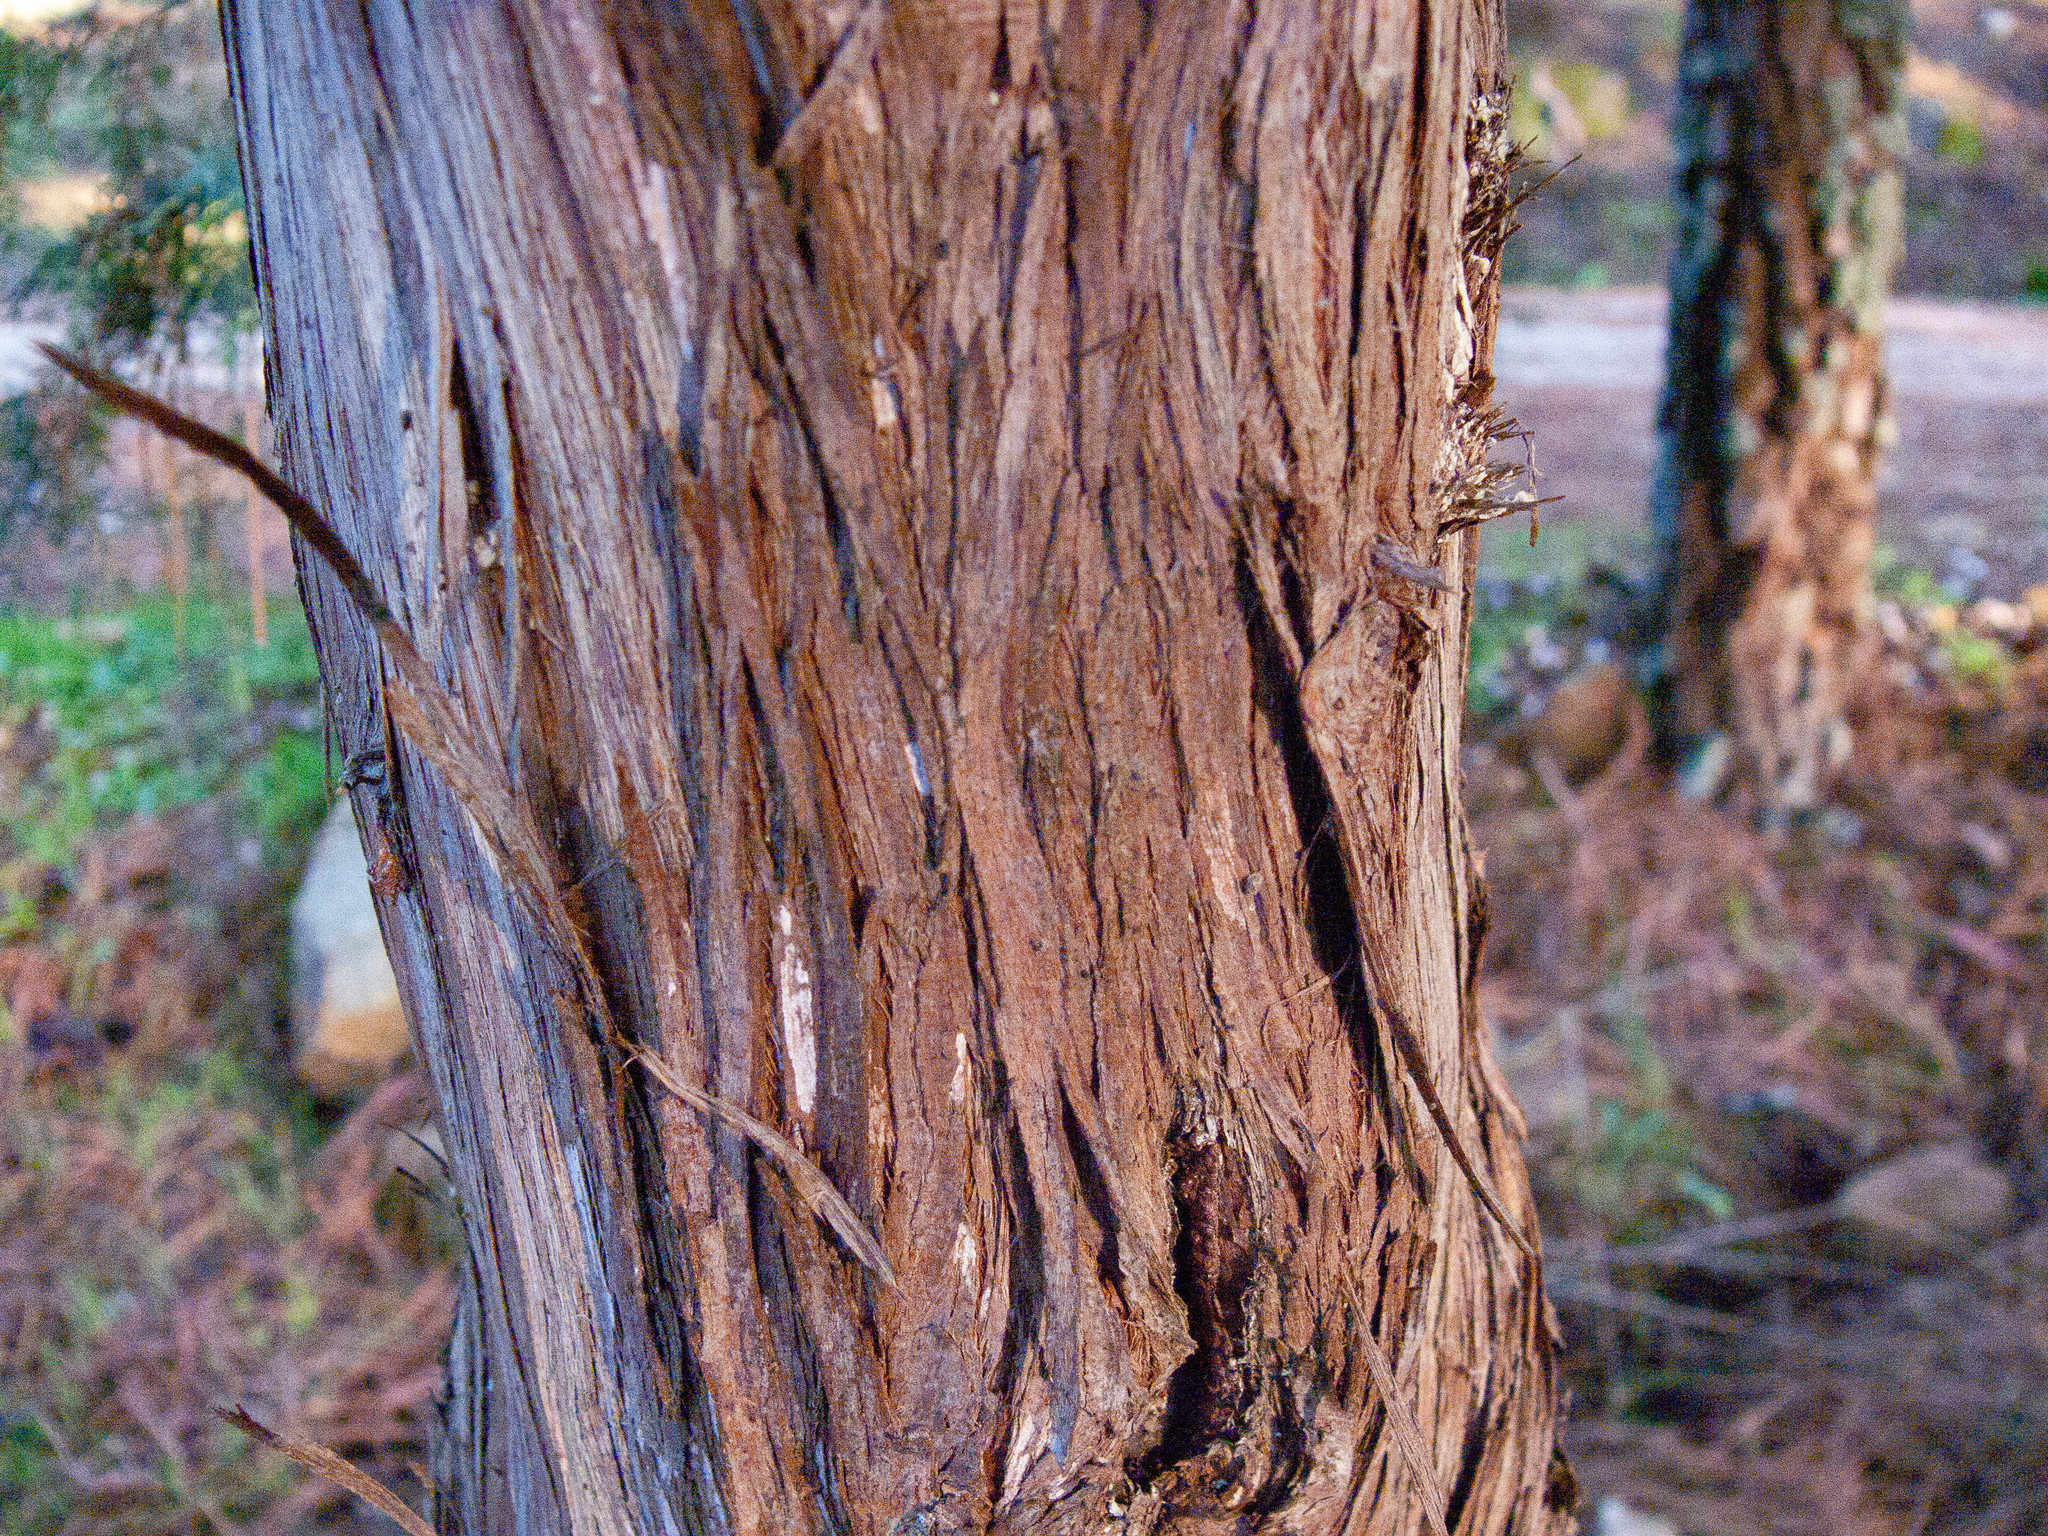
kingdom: Plantae
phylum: Tracheophyta
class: Pinopsida
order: Pinales
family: Cupressaceae
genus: Juniperus
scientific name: Juniperus oxycedrus
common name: Prickly juniper
